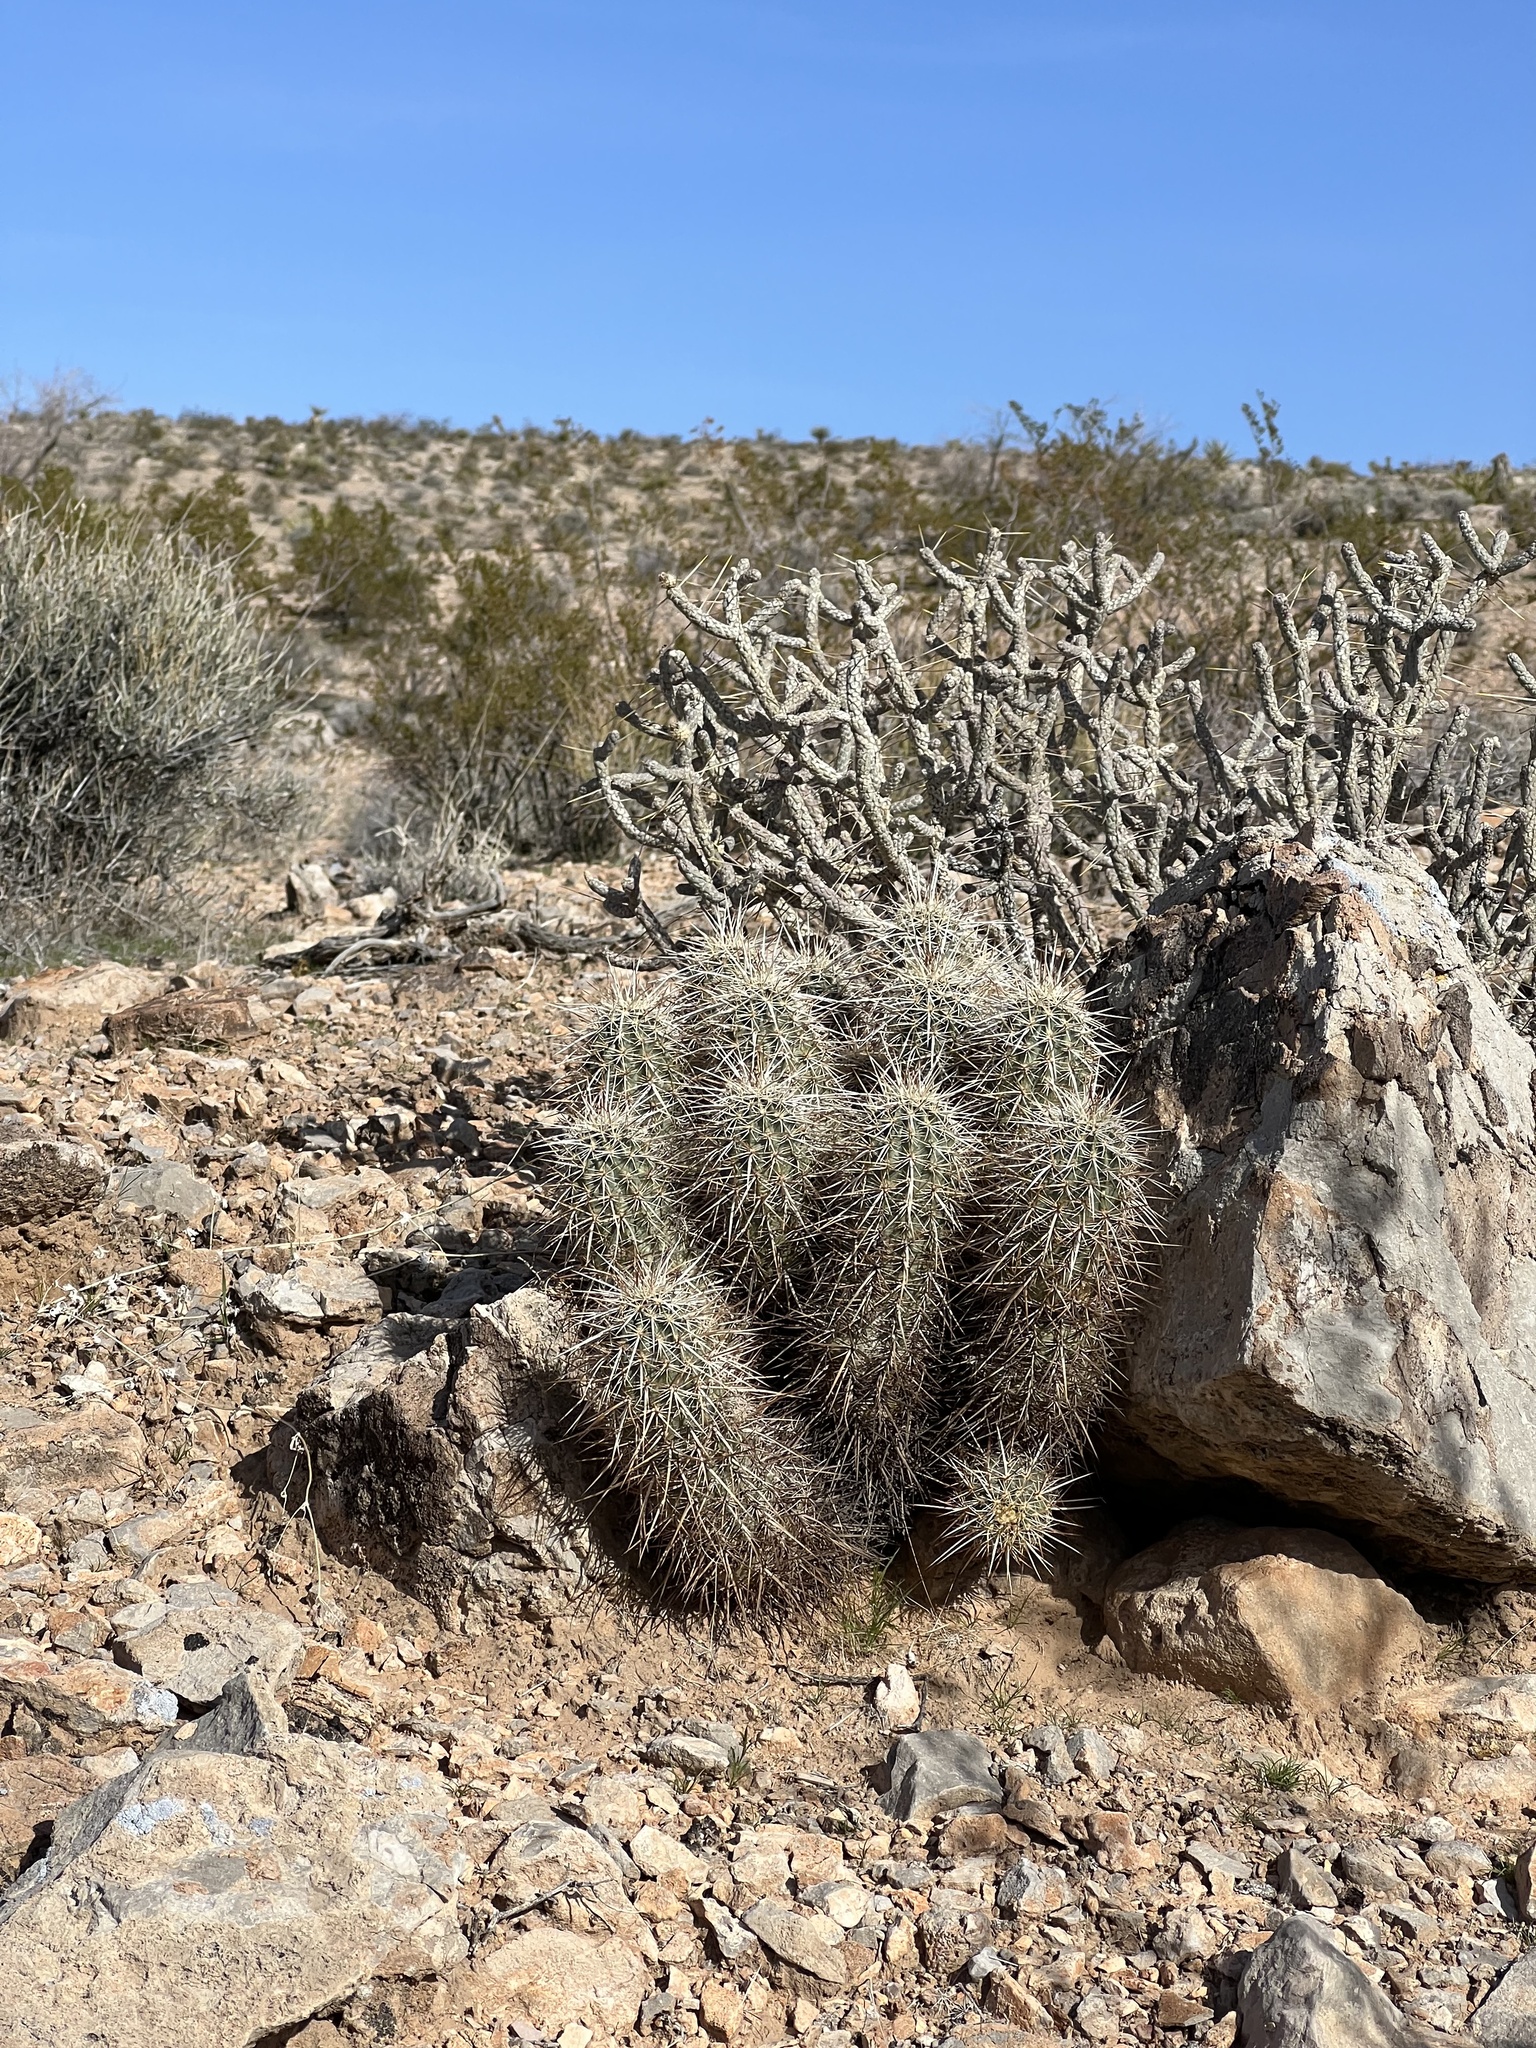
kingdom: Plantae
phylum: Tracheophyta
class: Magnoliopsida
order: Caryophyllales
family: Cactaceae
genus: Echinocereus
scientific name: Echinocereus engelmannii
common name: Engelmann's hedgehog cactus
